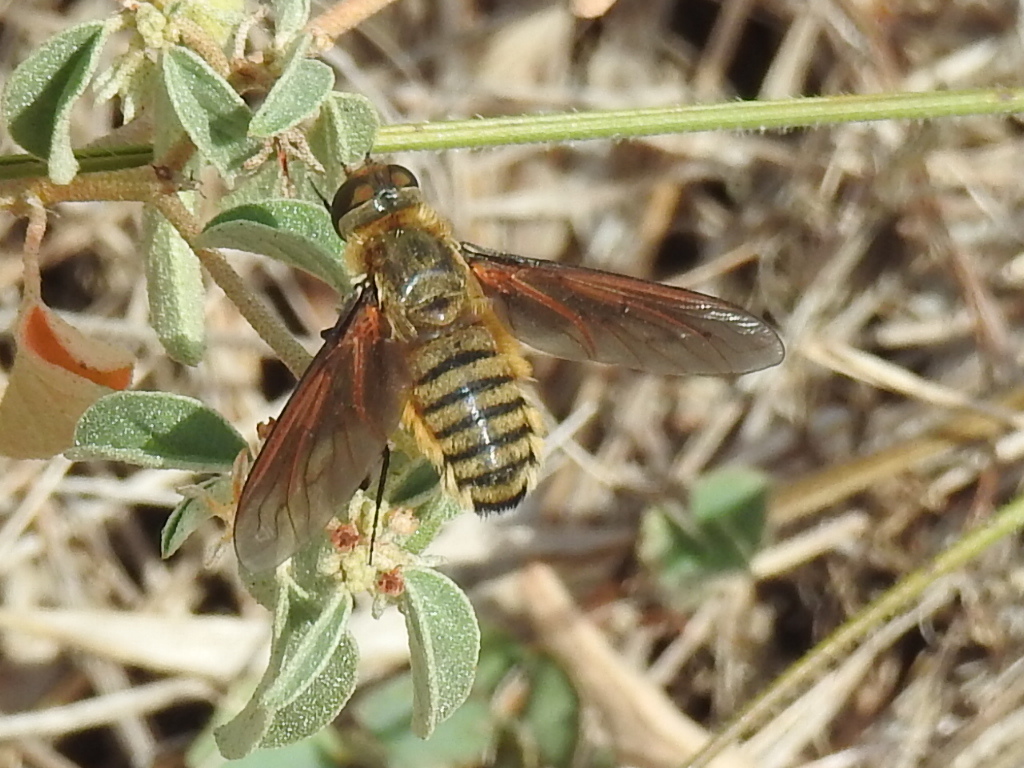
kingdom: Animalia
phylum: Arthropoda
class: Insecta
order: Diptera
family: Bombyliidae
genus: Poecilanthrax
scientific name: Poecilanthrax lucifer
